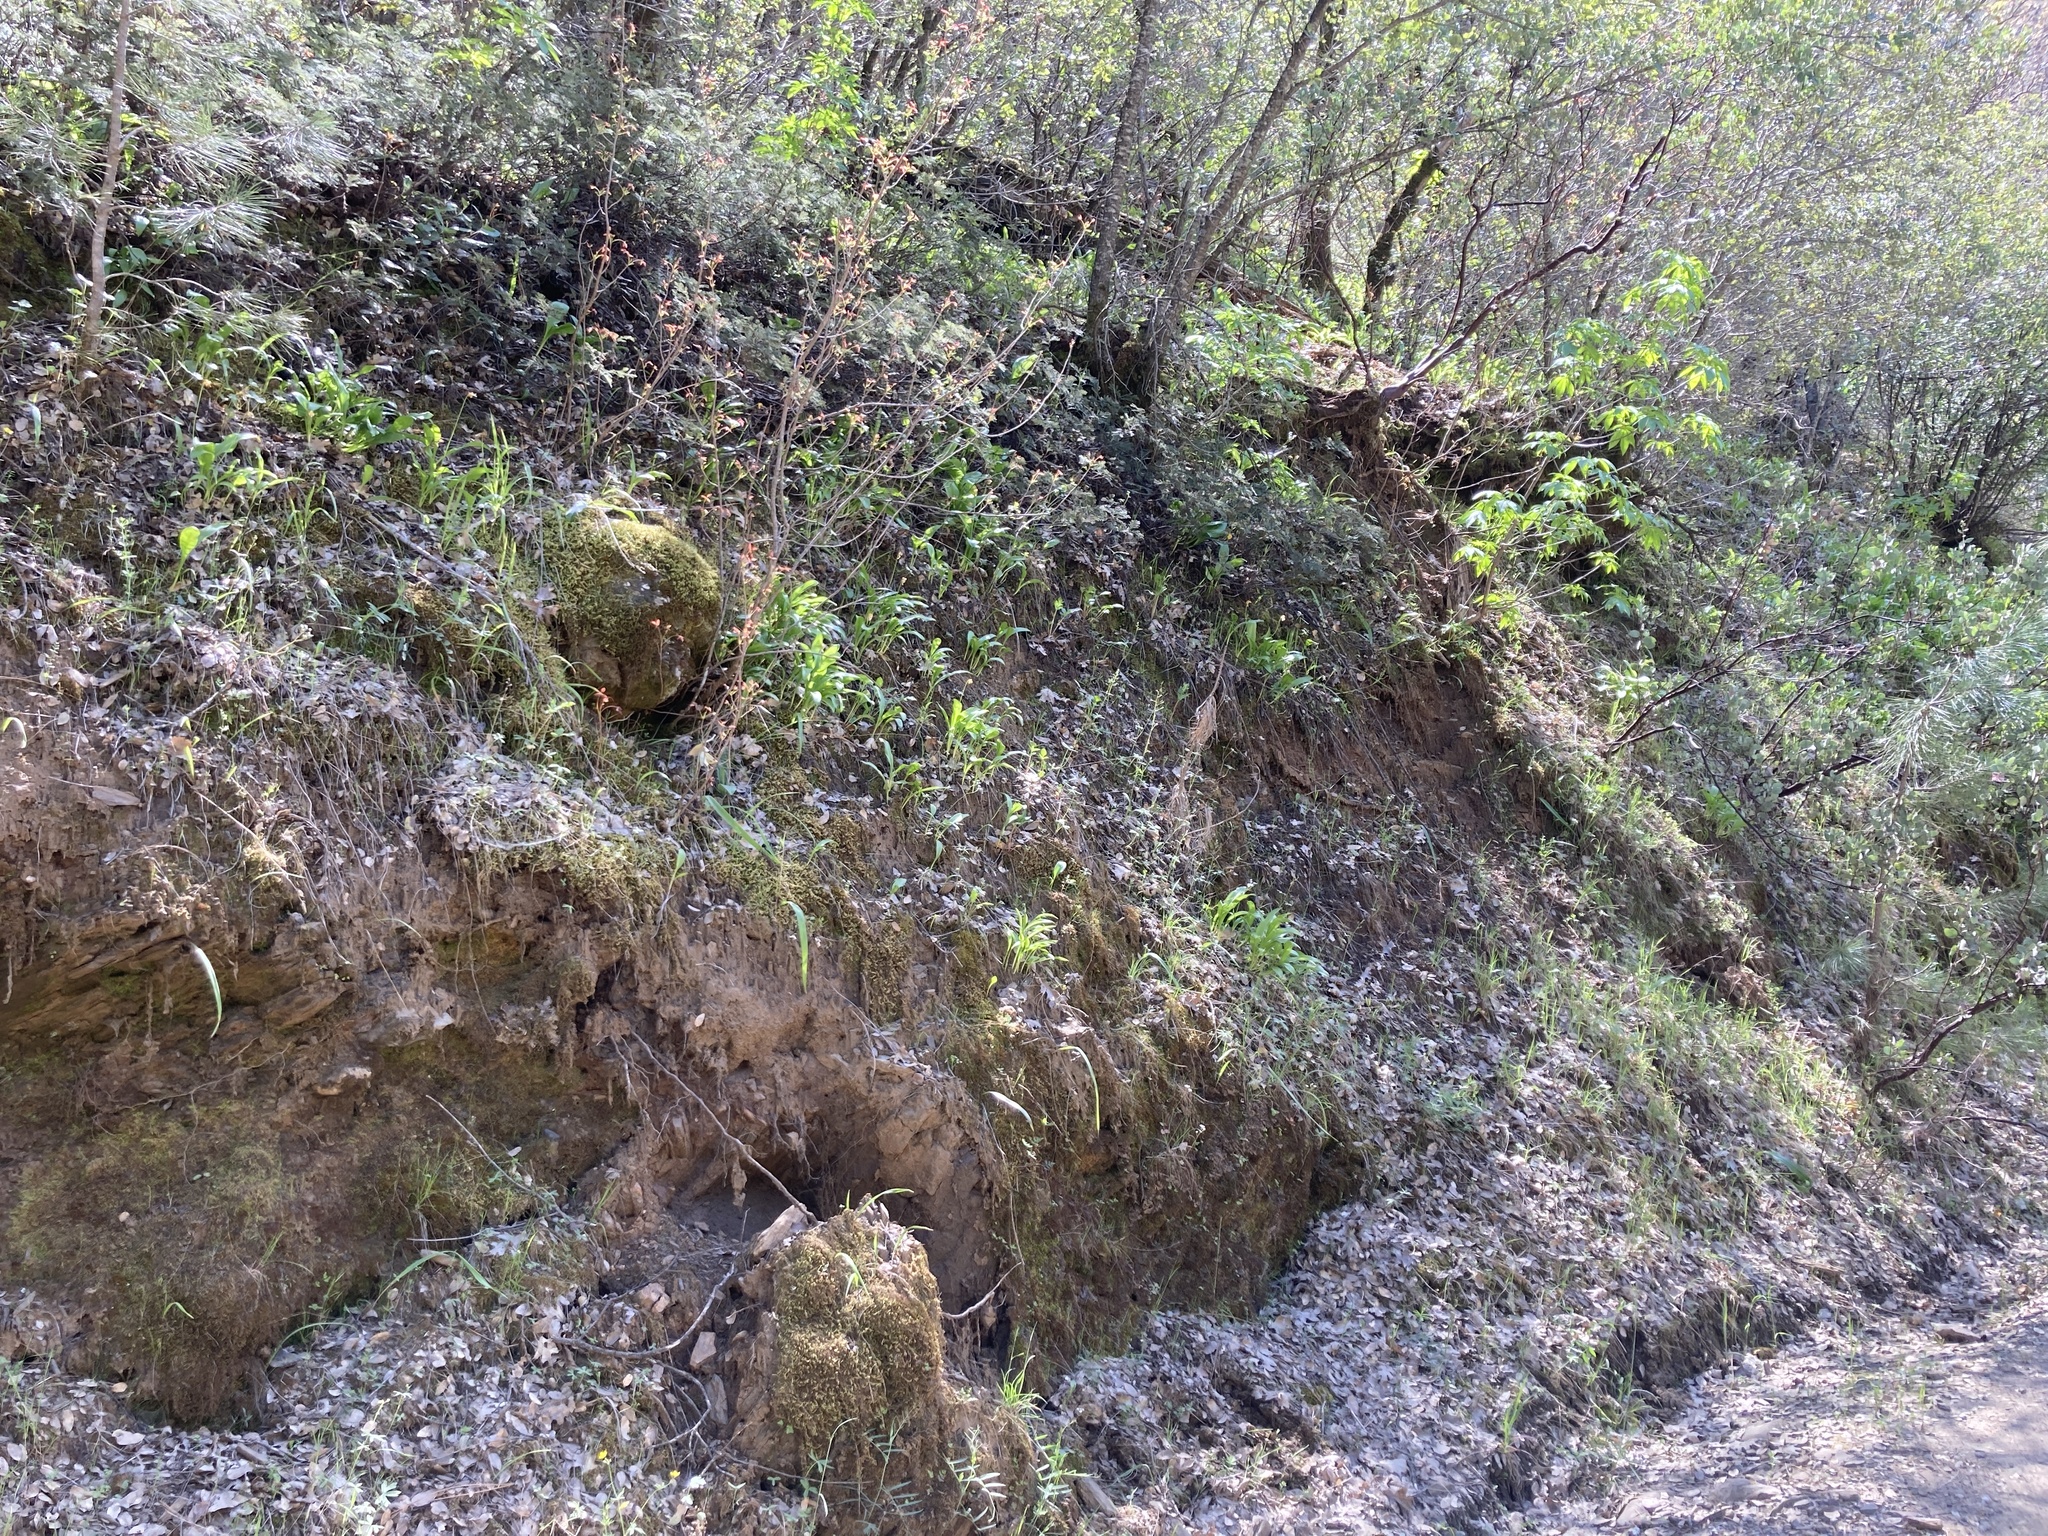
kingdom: Plantae
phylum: Tracheophyta
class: Liliopsida
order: Liliales
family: Liliaceae
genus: Erythronium
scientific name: Erythronium tuolumnense
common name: Tuolumne fawn-lily
